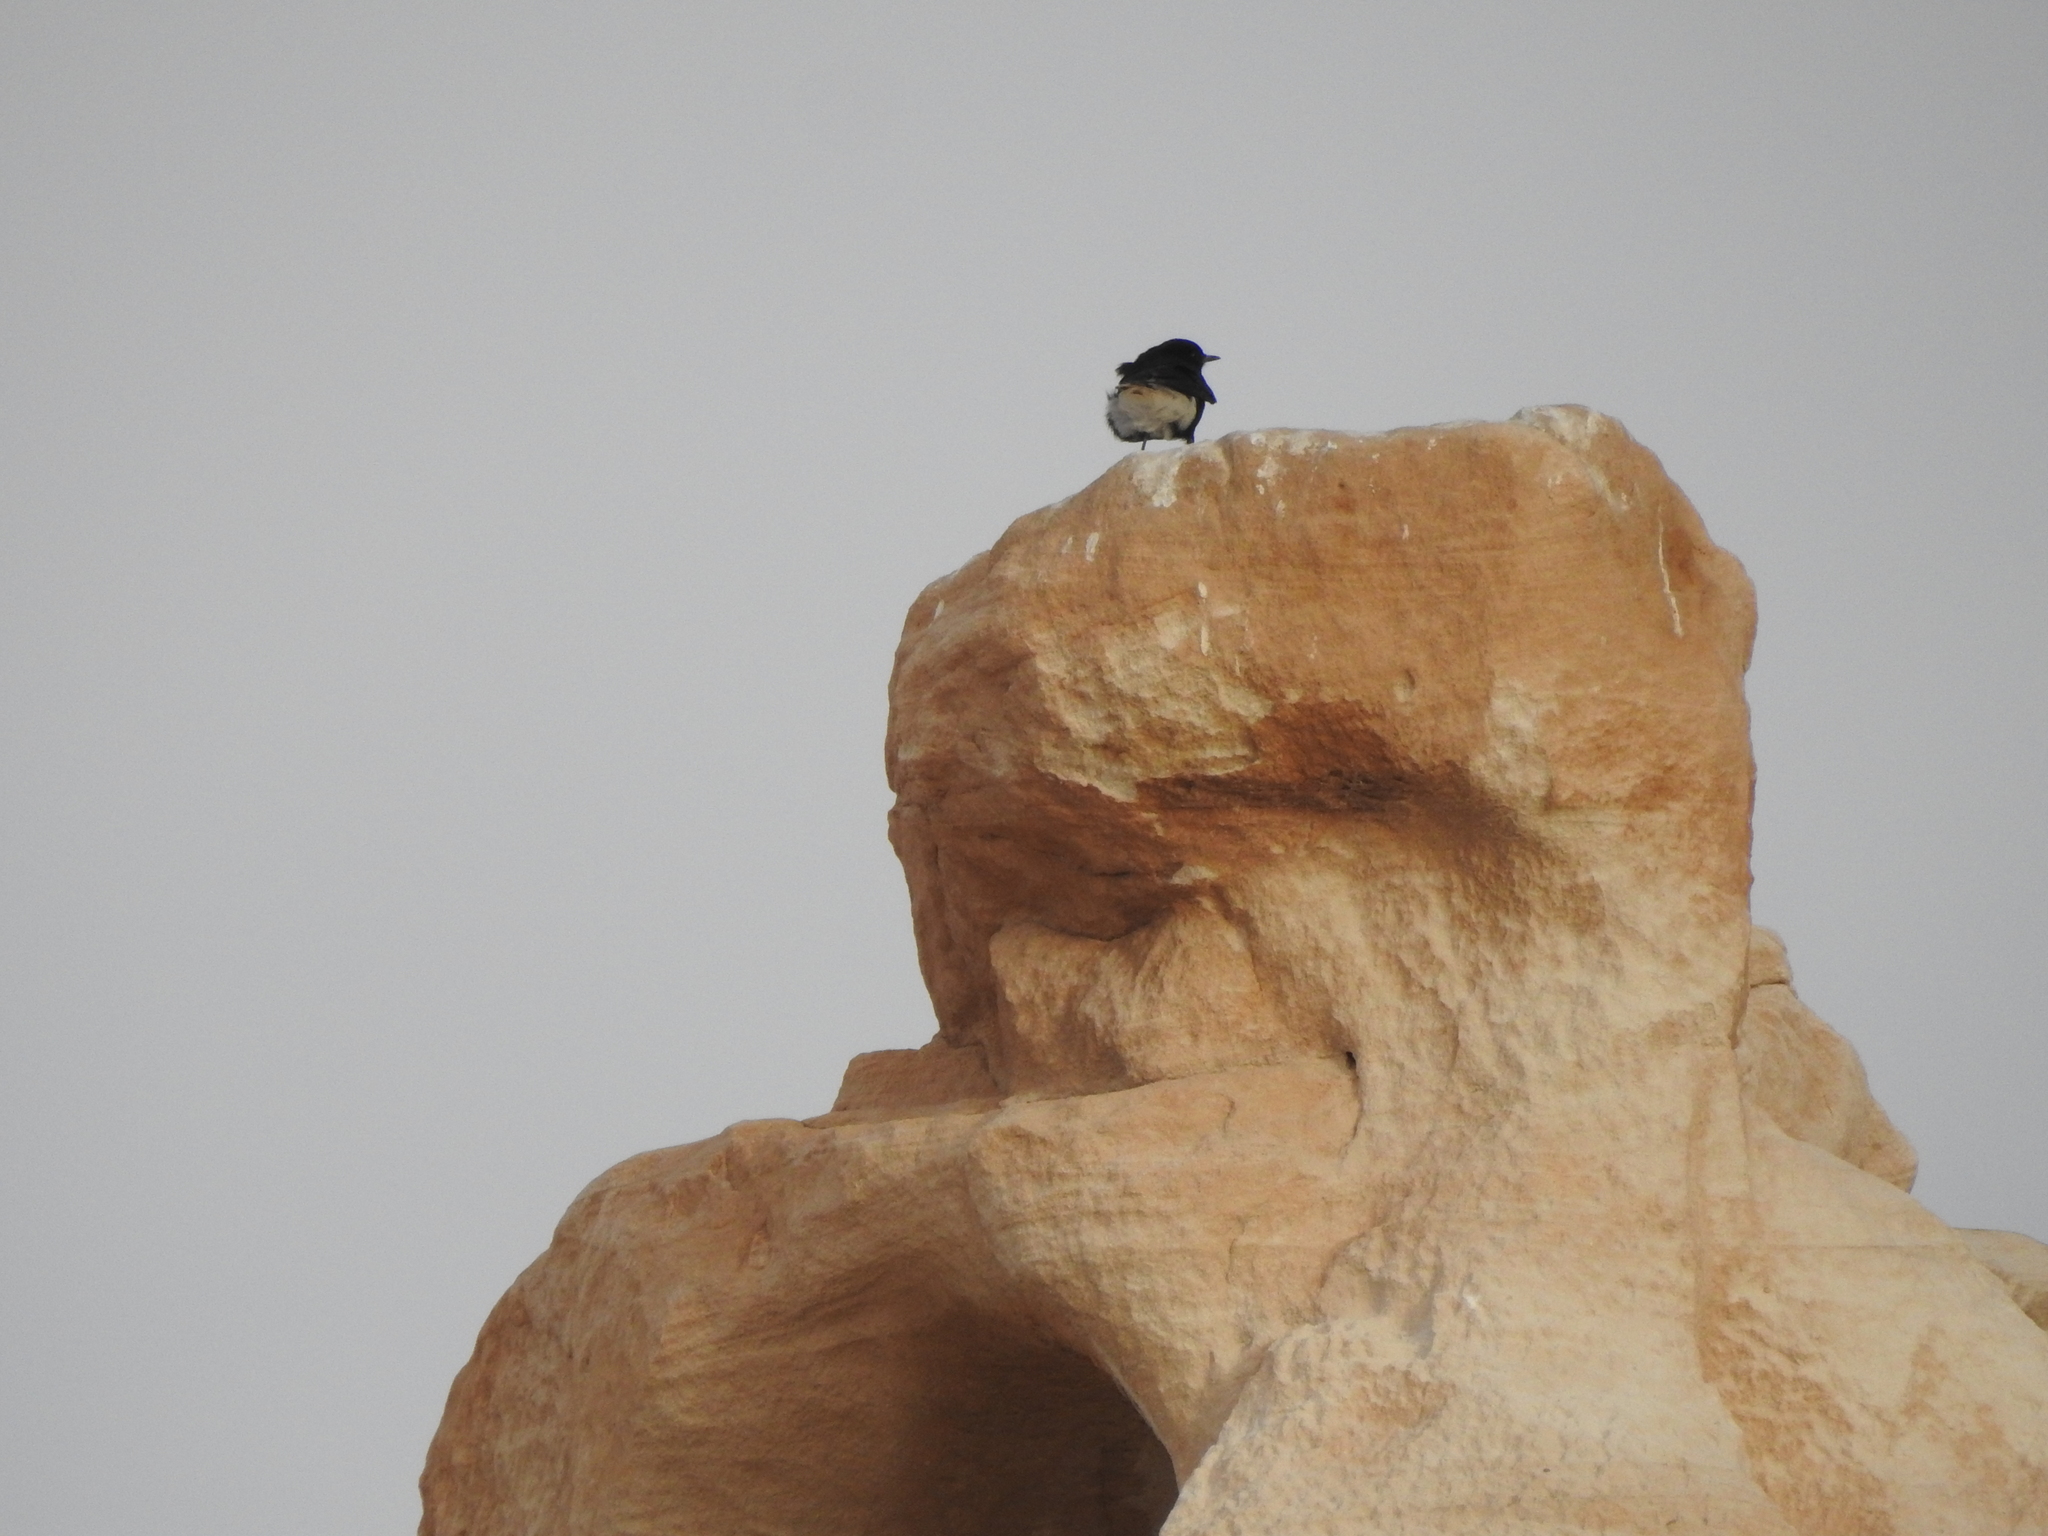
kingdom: Animalia
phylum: Chordata
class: Aves
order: Passeriformes
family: Muscicapidae
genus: Oenanthe
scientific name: Oenanthe leucopyga
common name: White-crowned wheatear
